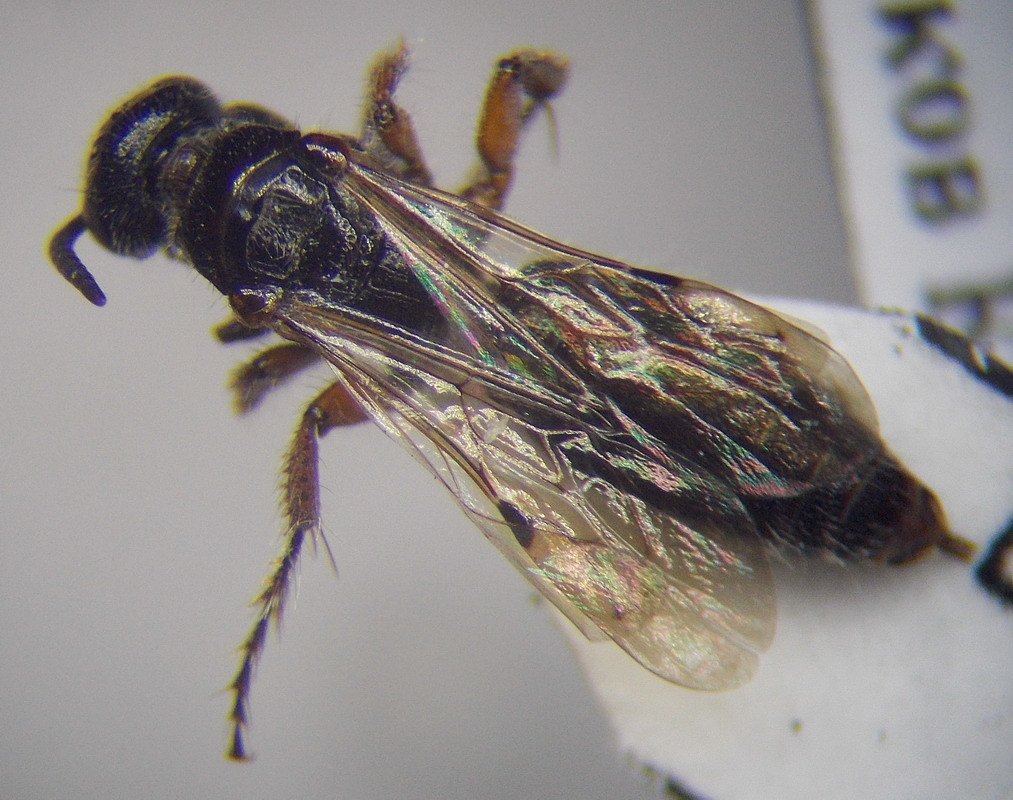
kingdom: Animalia
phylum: Arthropoda
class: Insecta
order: Hymenoptera
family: Tiphiidae
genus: Tiphia
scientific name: Tiphia femorata
